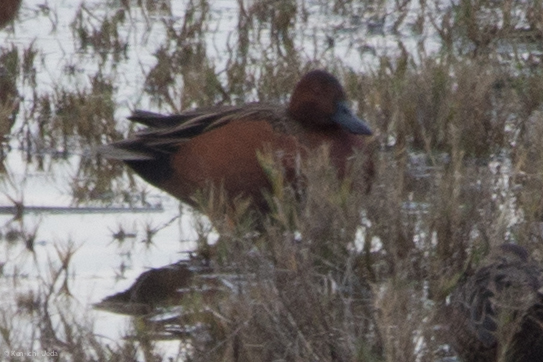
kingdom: Animalia
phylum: Chordata
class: Aves
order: Anseriformes
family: Anatidae
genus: Spatula
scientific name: Spatula cyanoptera
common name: Cinnamon teal
